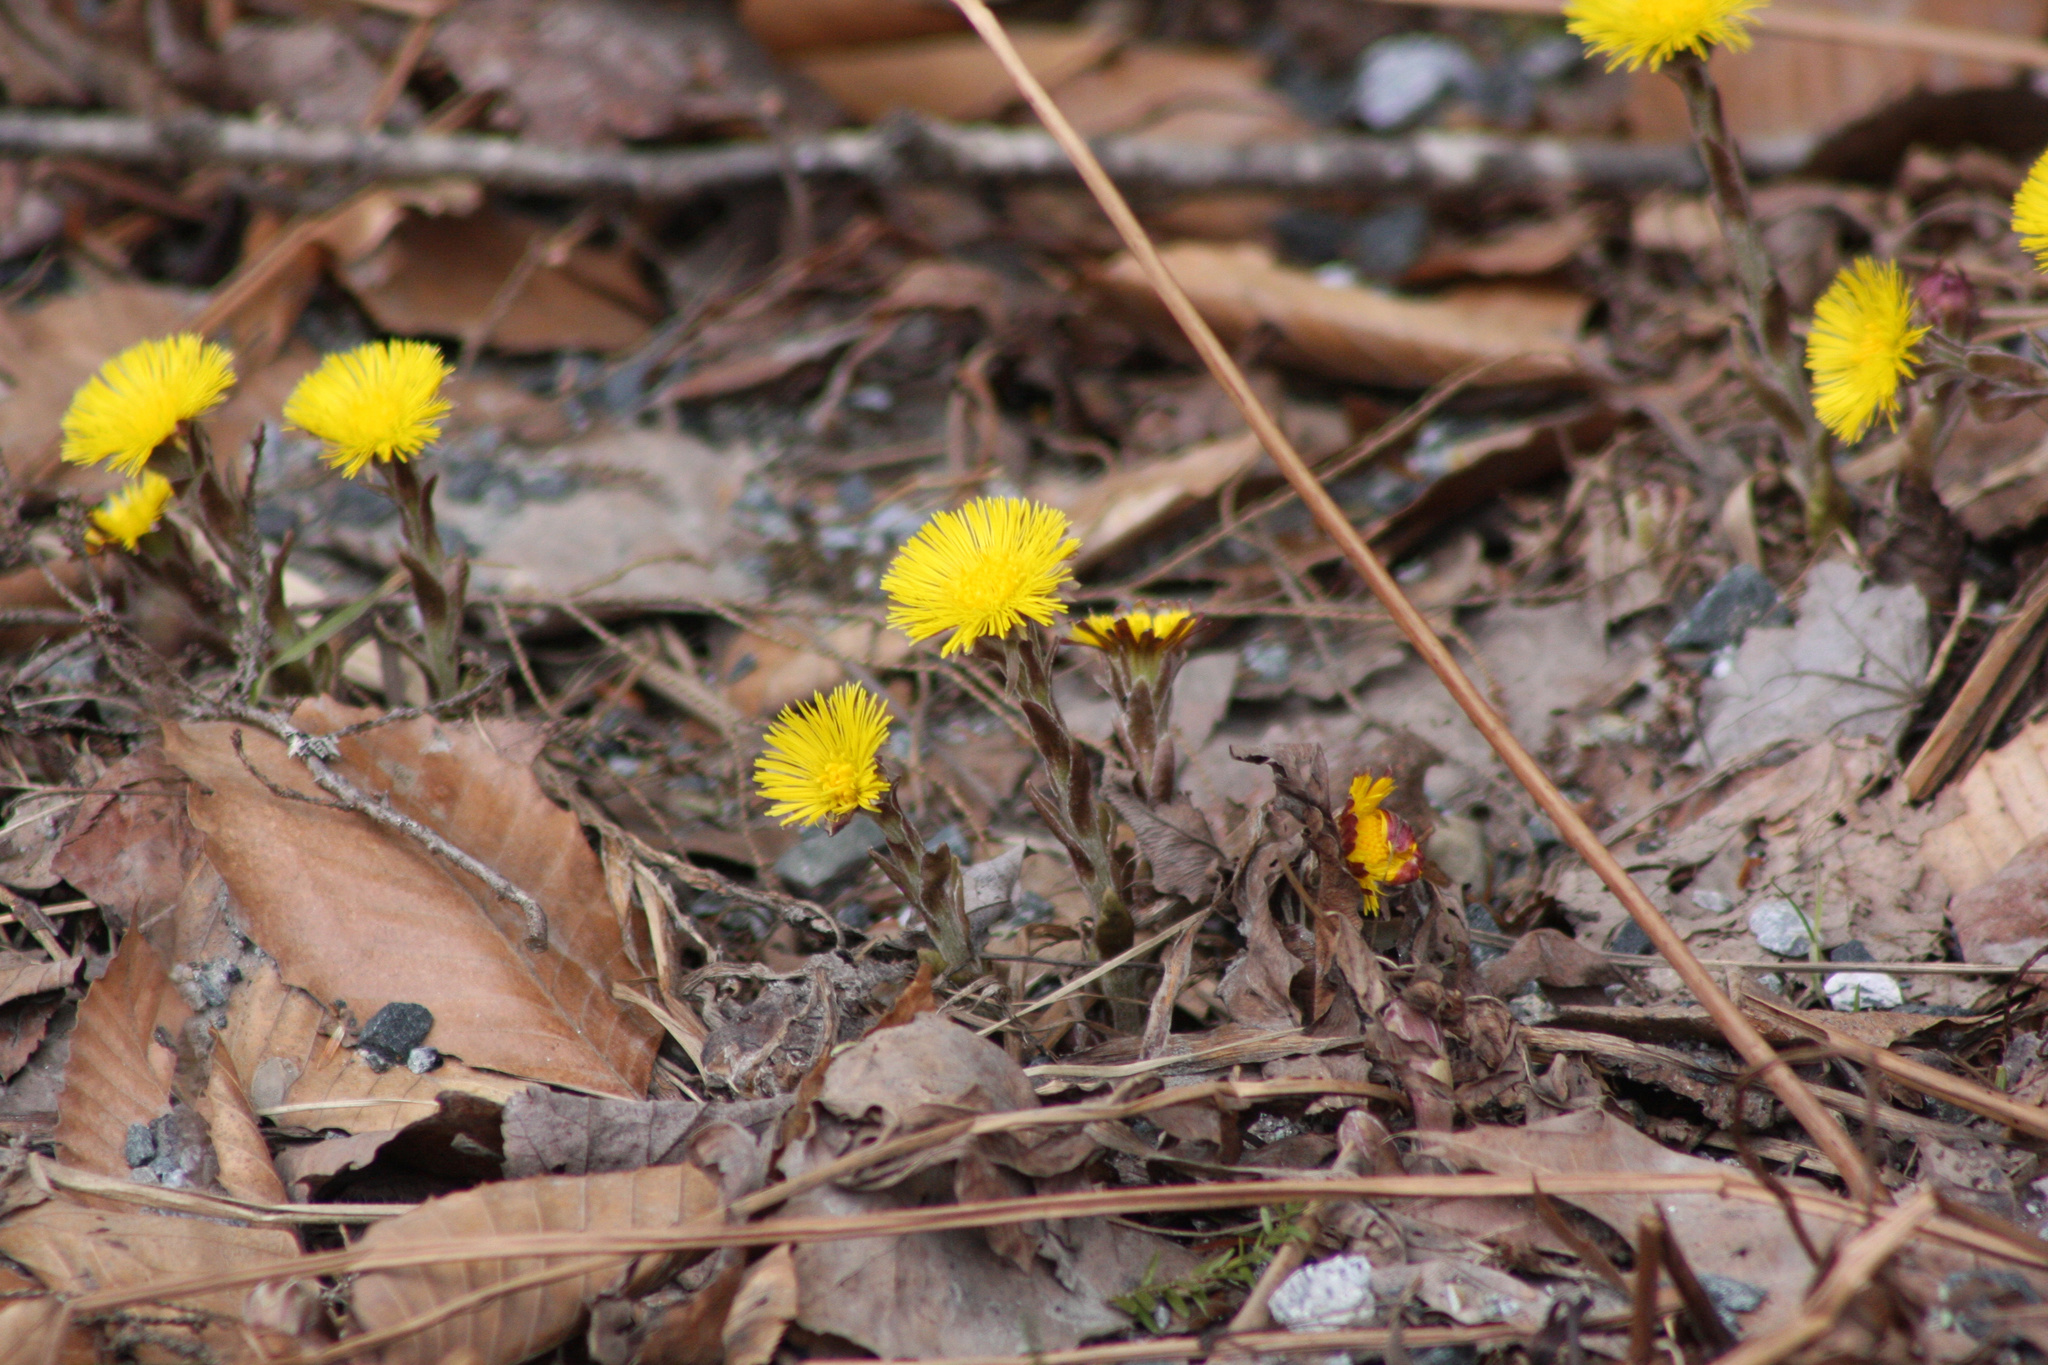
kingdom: Plantae
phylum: Tracheophyta
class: Magnoliopsida
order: Asterales
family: Asteraceae
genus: Tussilago
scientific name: Tussilago farfara
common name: Coltsfoot
